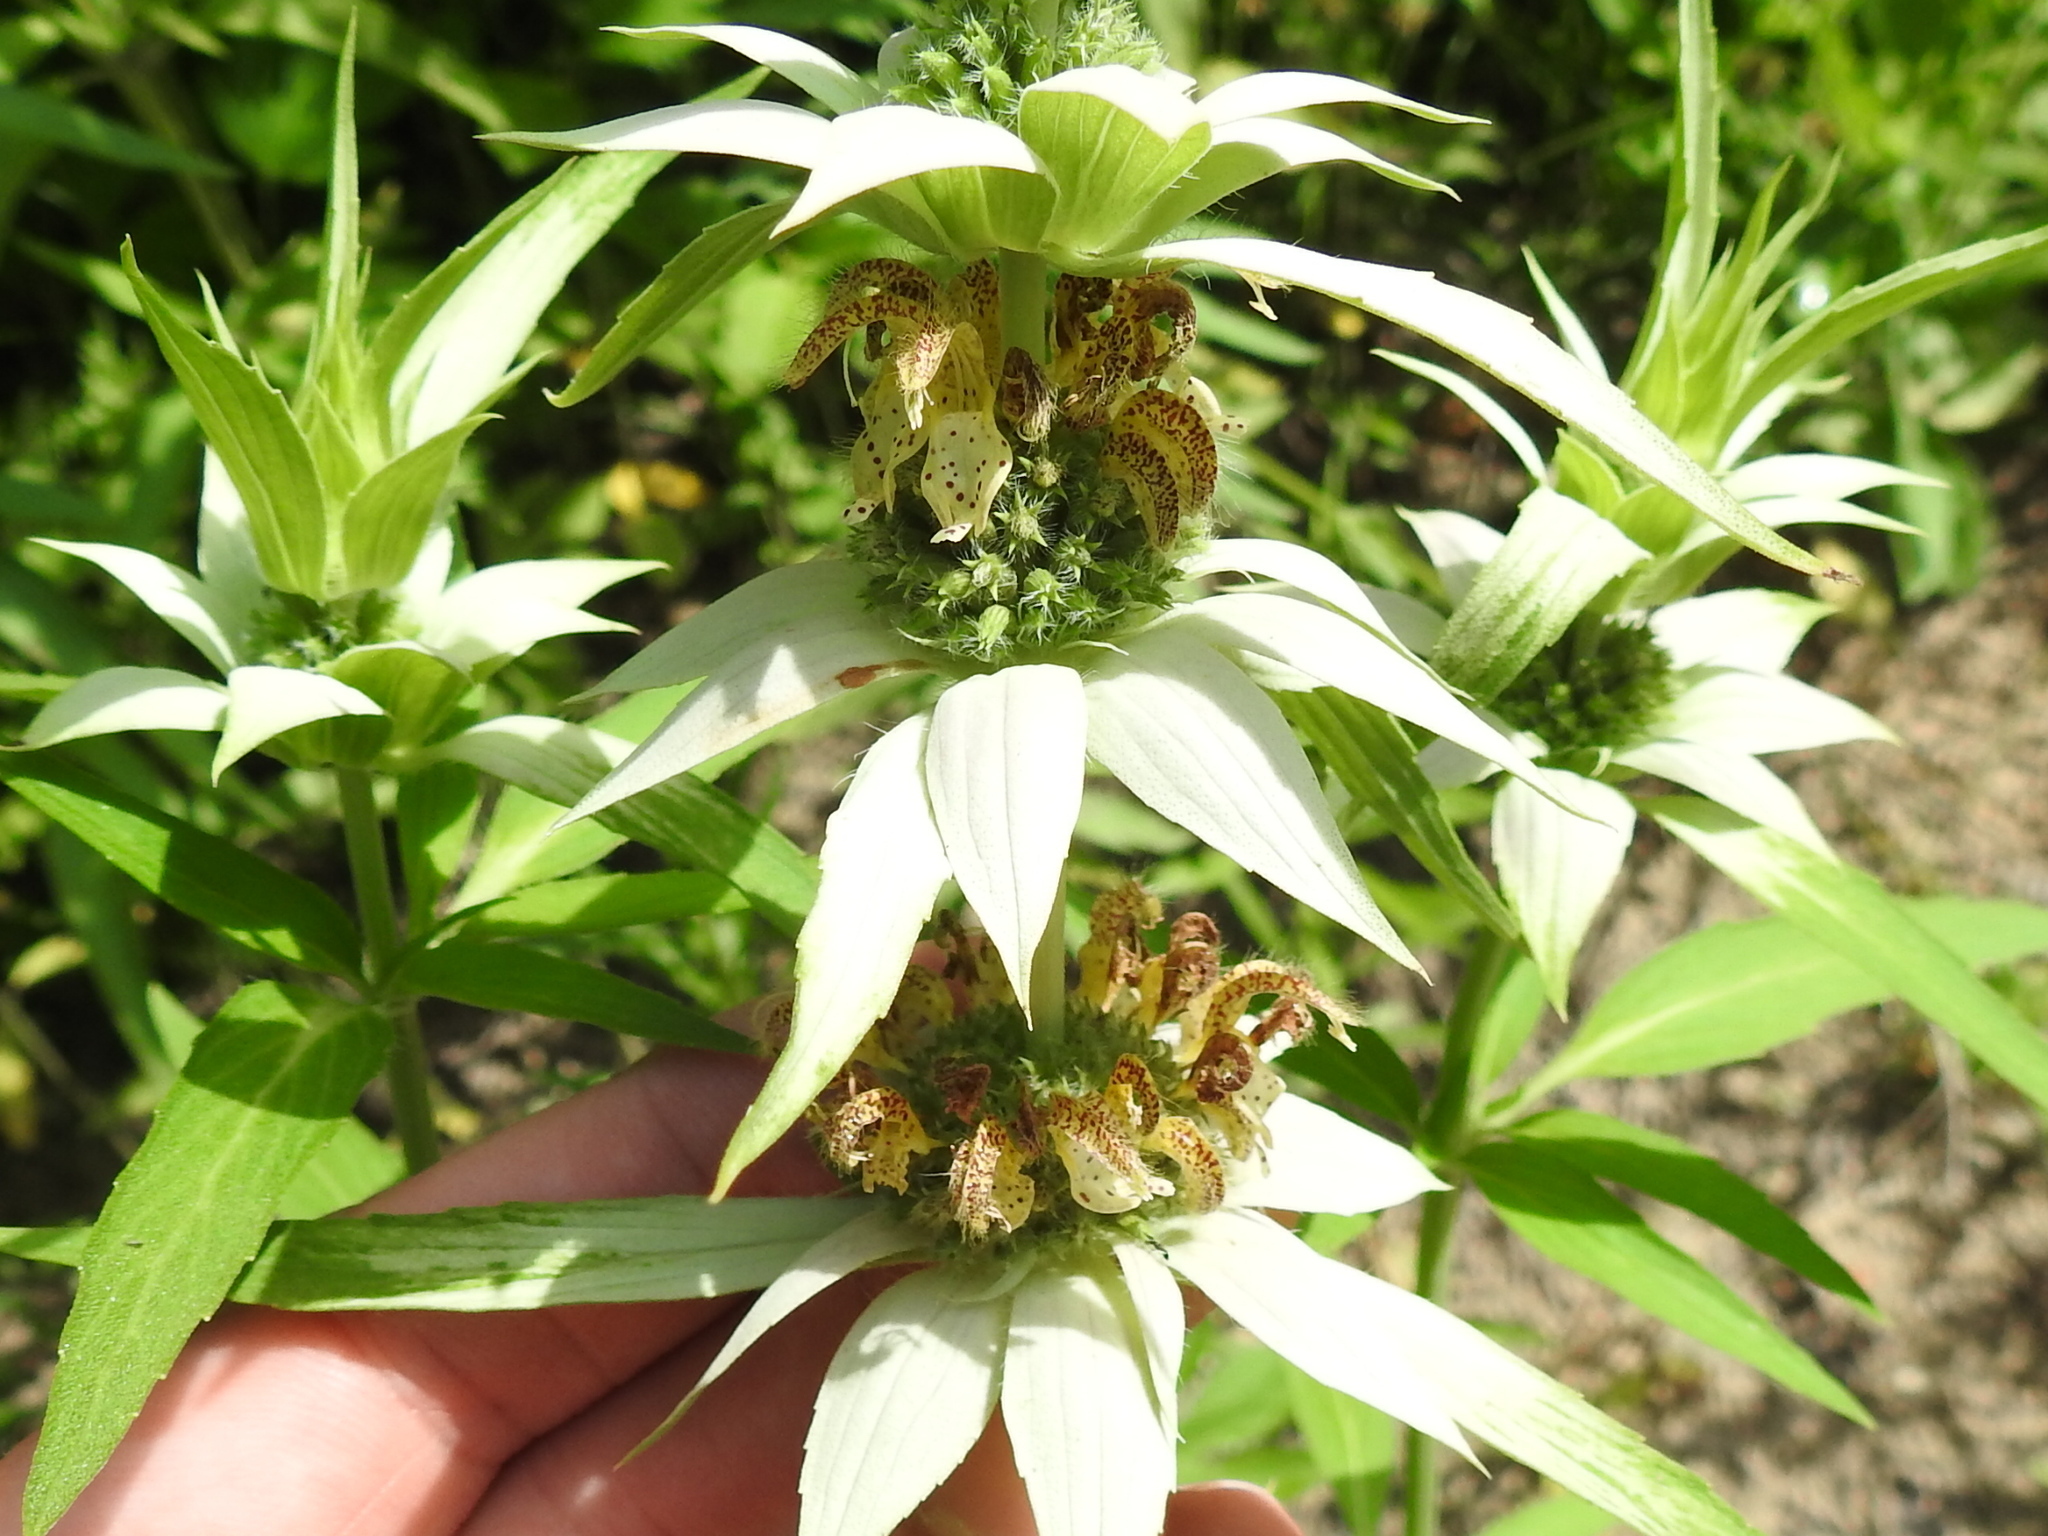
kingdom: Plantae
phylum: Tracheophyta
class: Magnoliopsida
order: Lamiales
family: Lamiaceae
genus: Monarda
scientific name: Monarda punctata
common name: Dotted monarda
